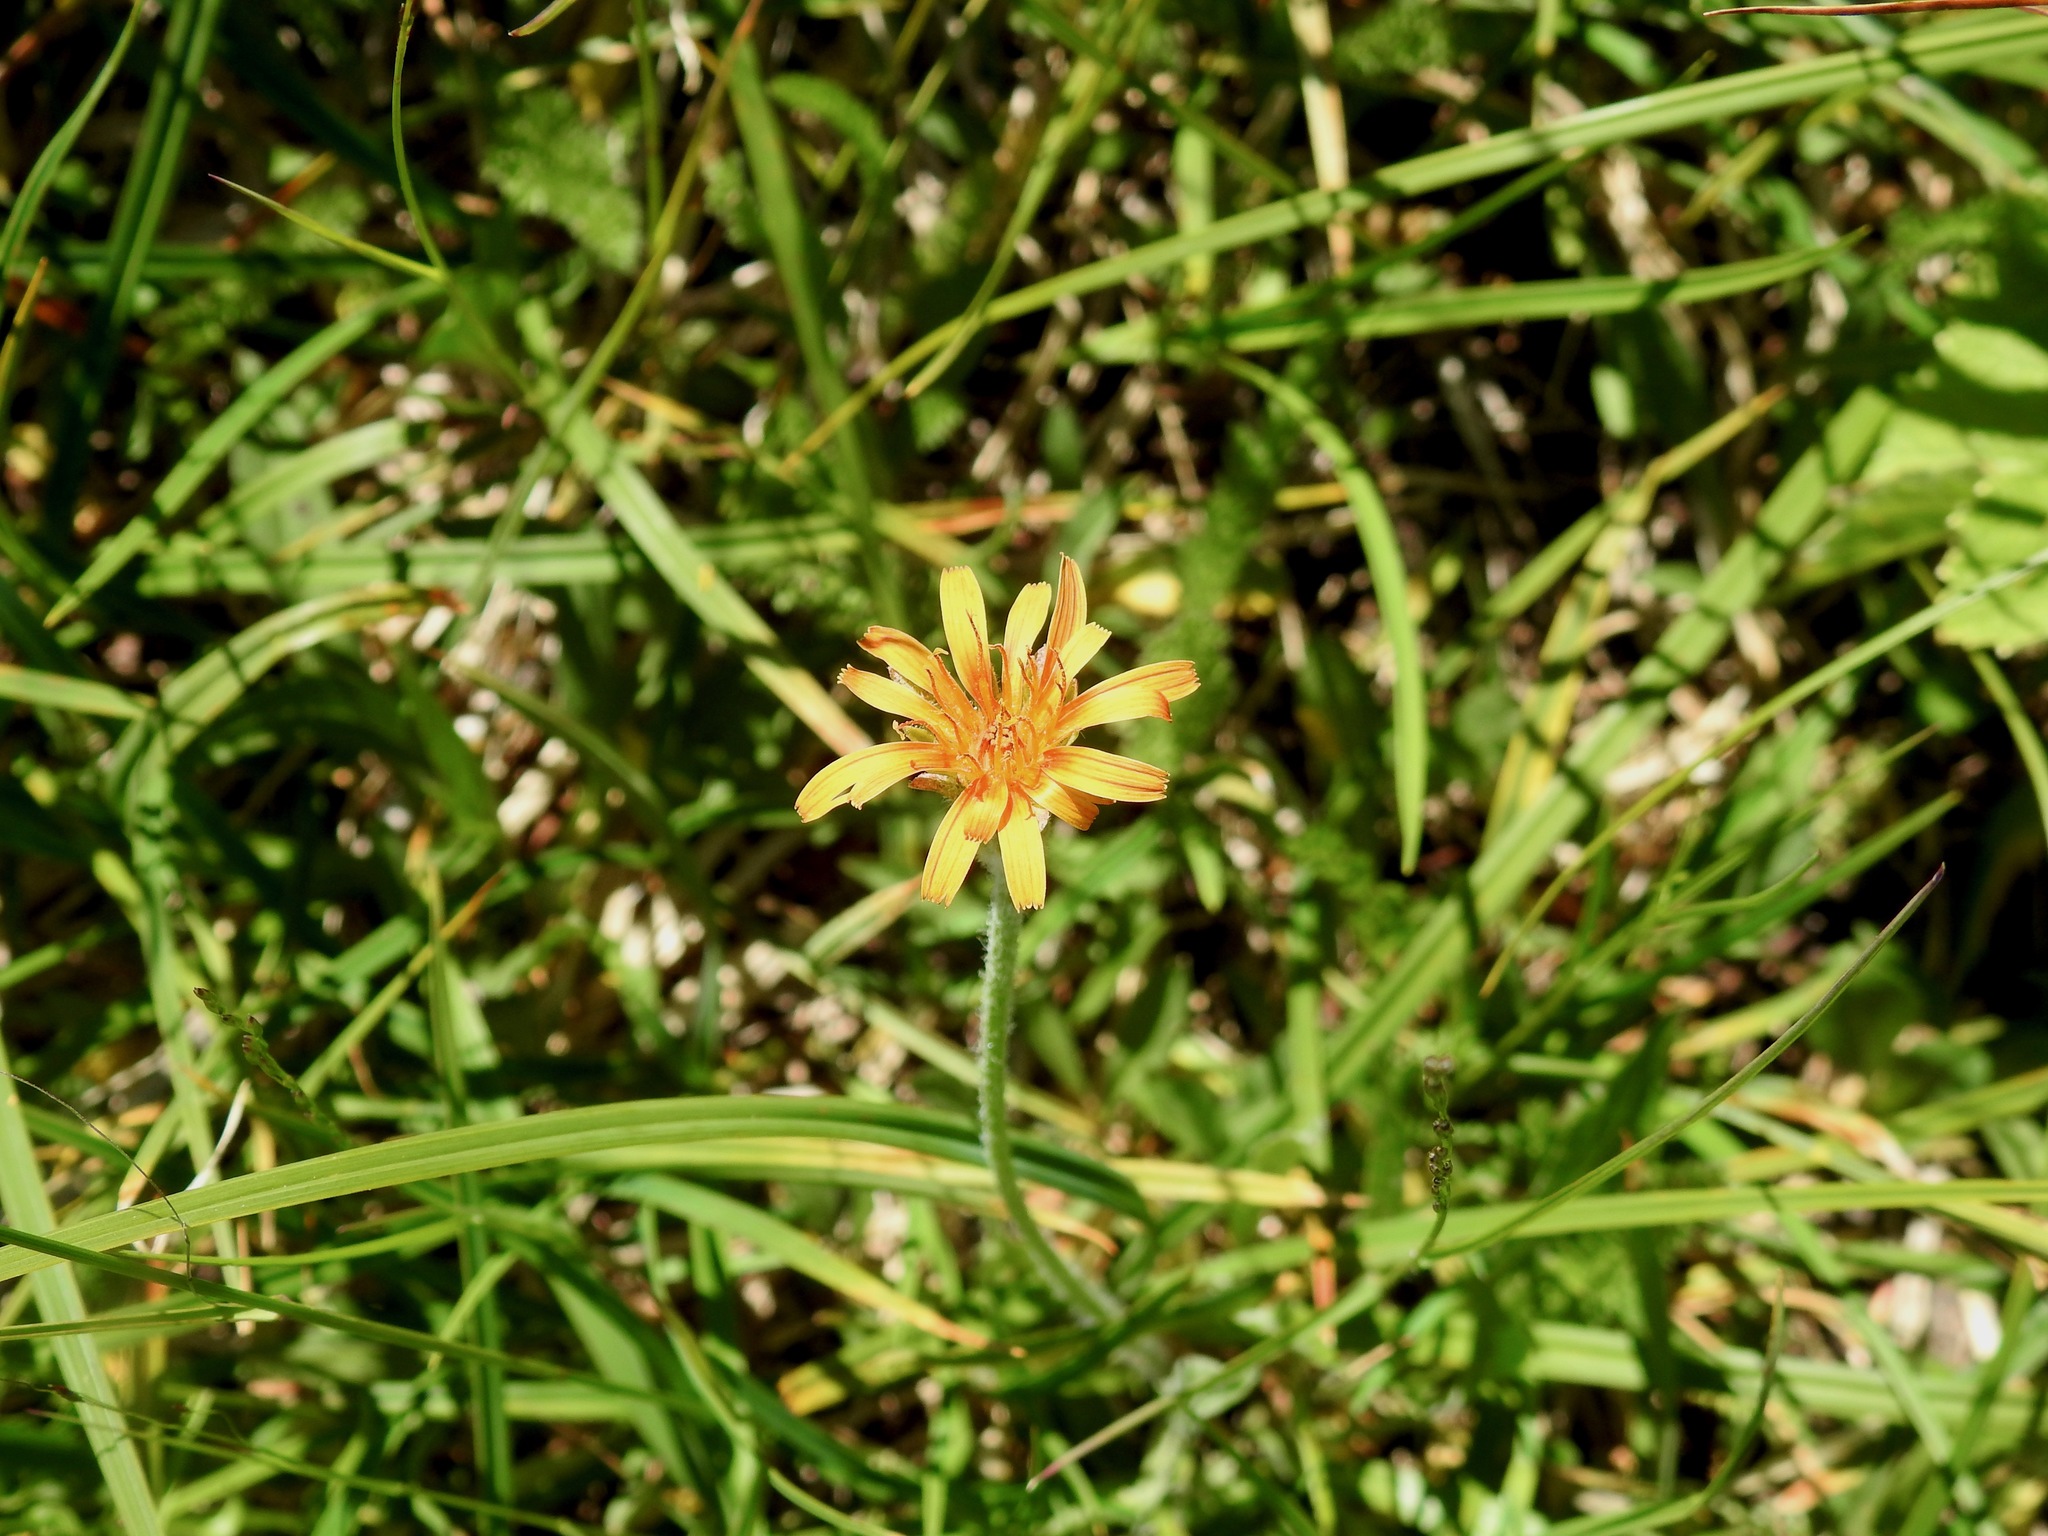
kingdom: Plantae
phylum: Tracheophyta
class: Magnoliopsida
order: Asterales
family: Asteraceae
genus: Agoseris
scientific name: Agoseris aurantiaca
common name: Mountain agoseris
